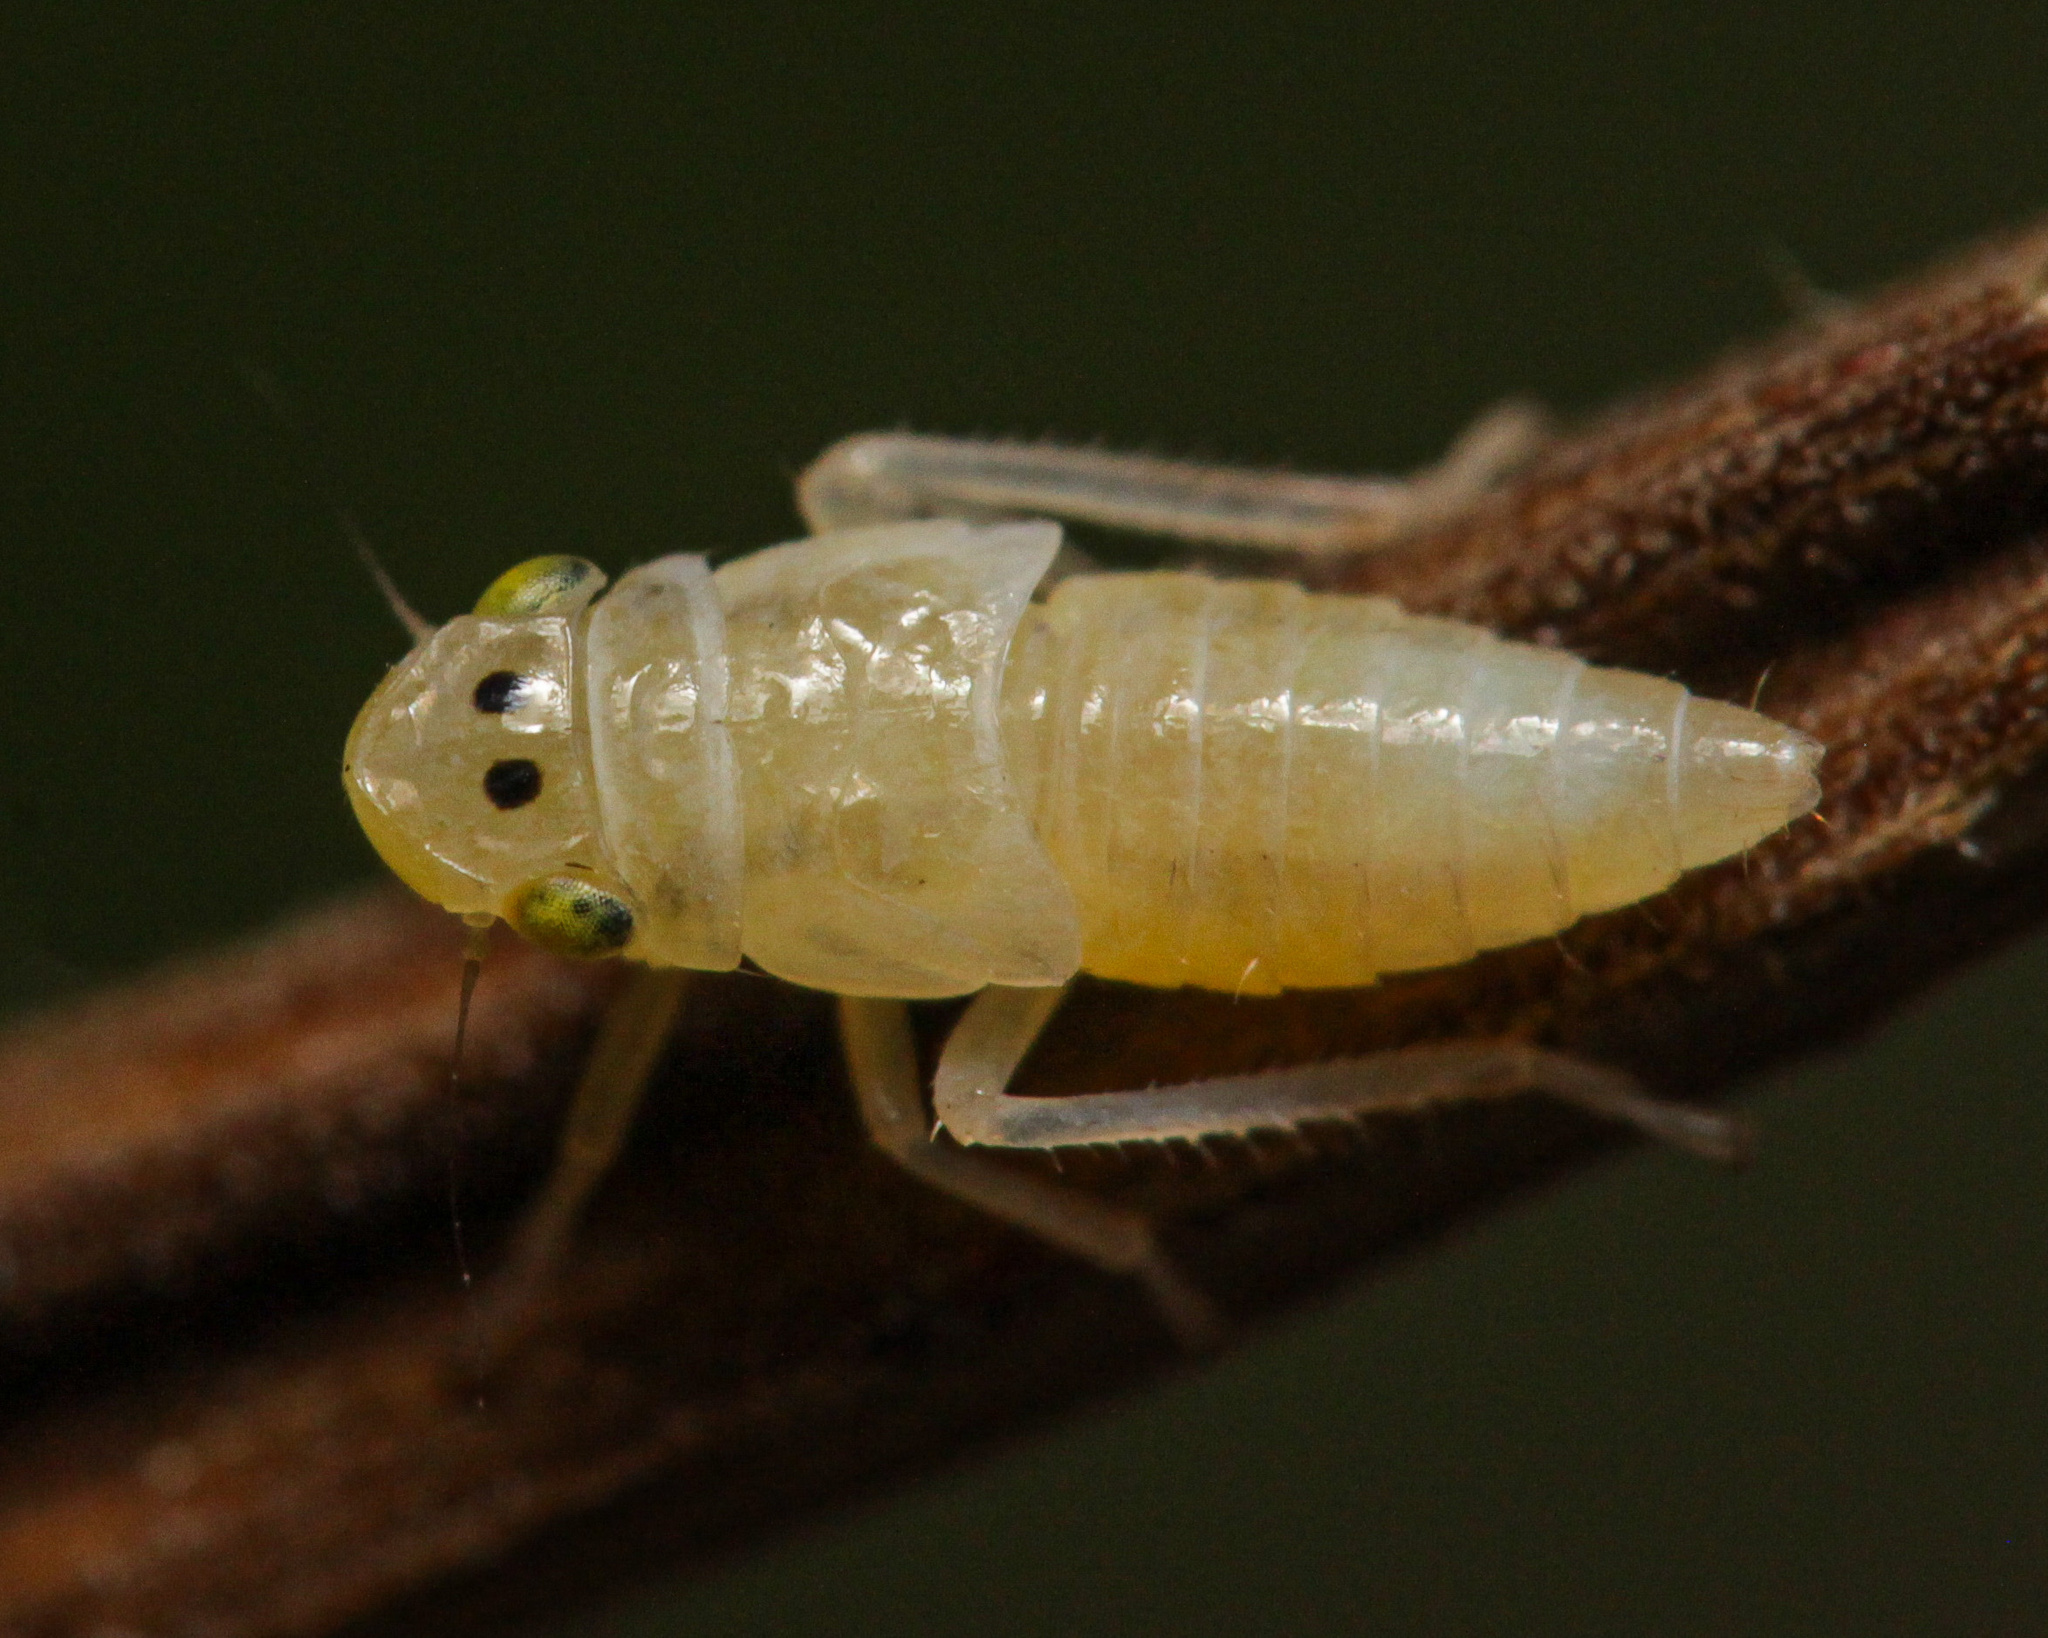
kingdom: Animalia
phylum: Arthropoda
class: Insecta
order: Hemiptera
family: Cicadellidae
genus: Evacanthus
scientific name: Evacanthus interruptus
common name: Leafhopper
